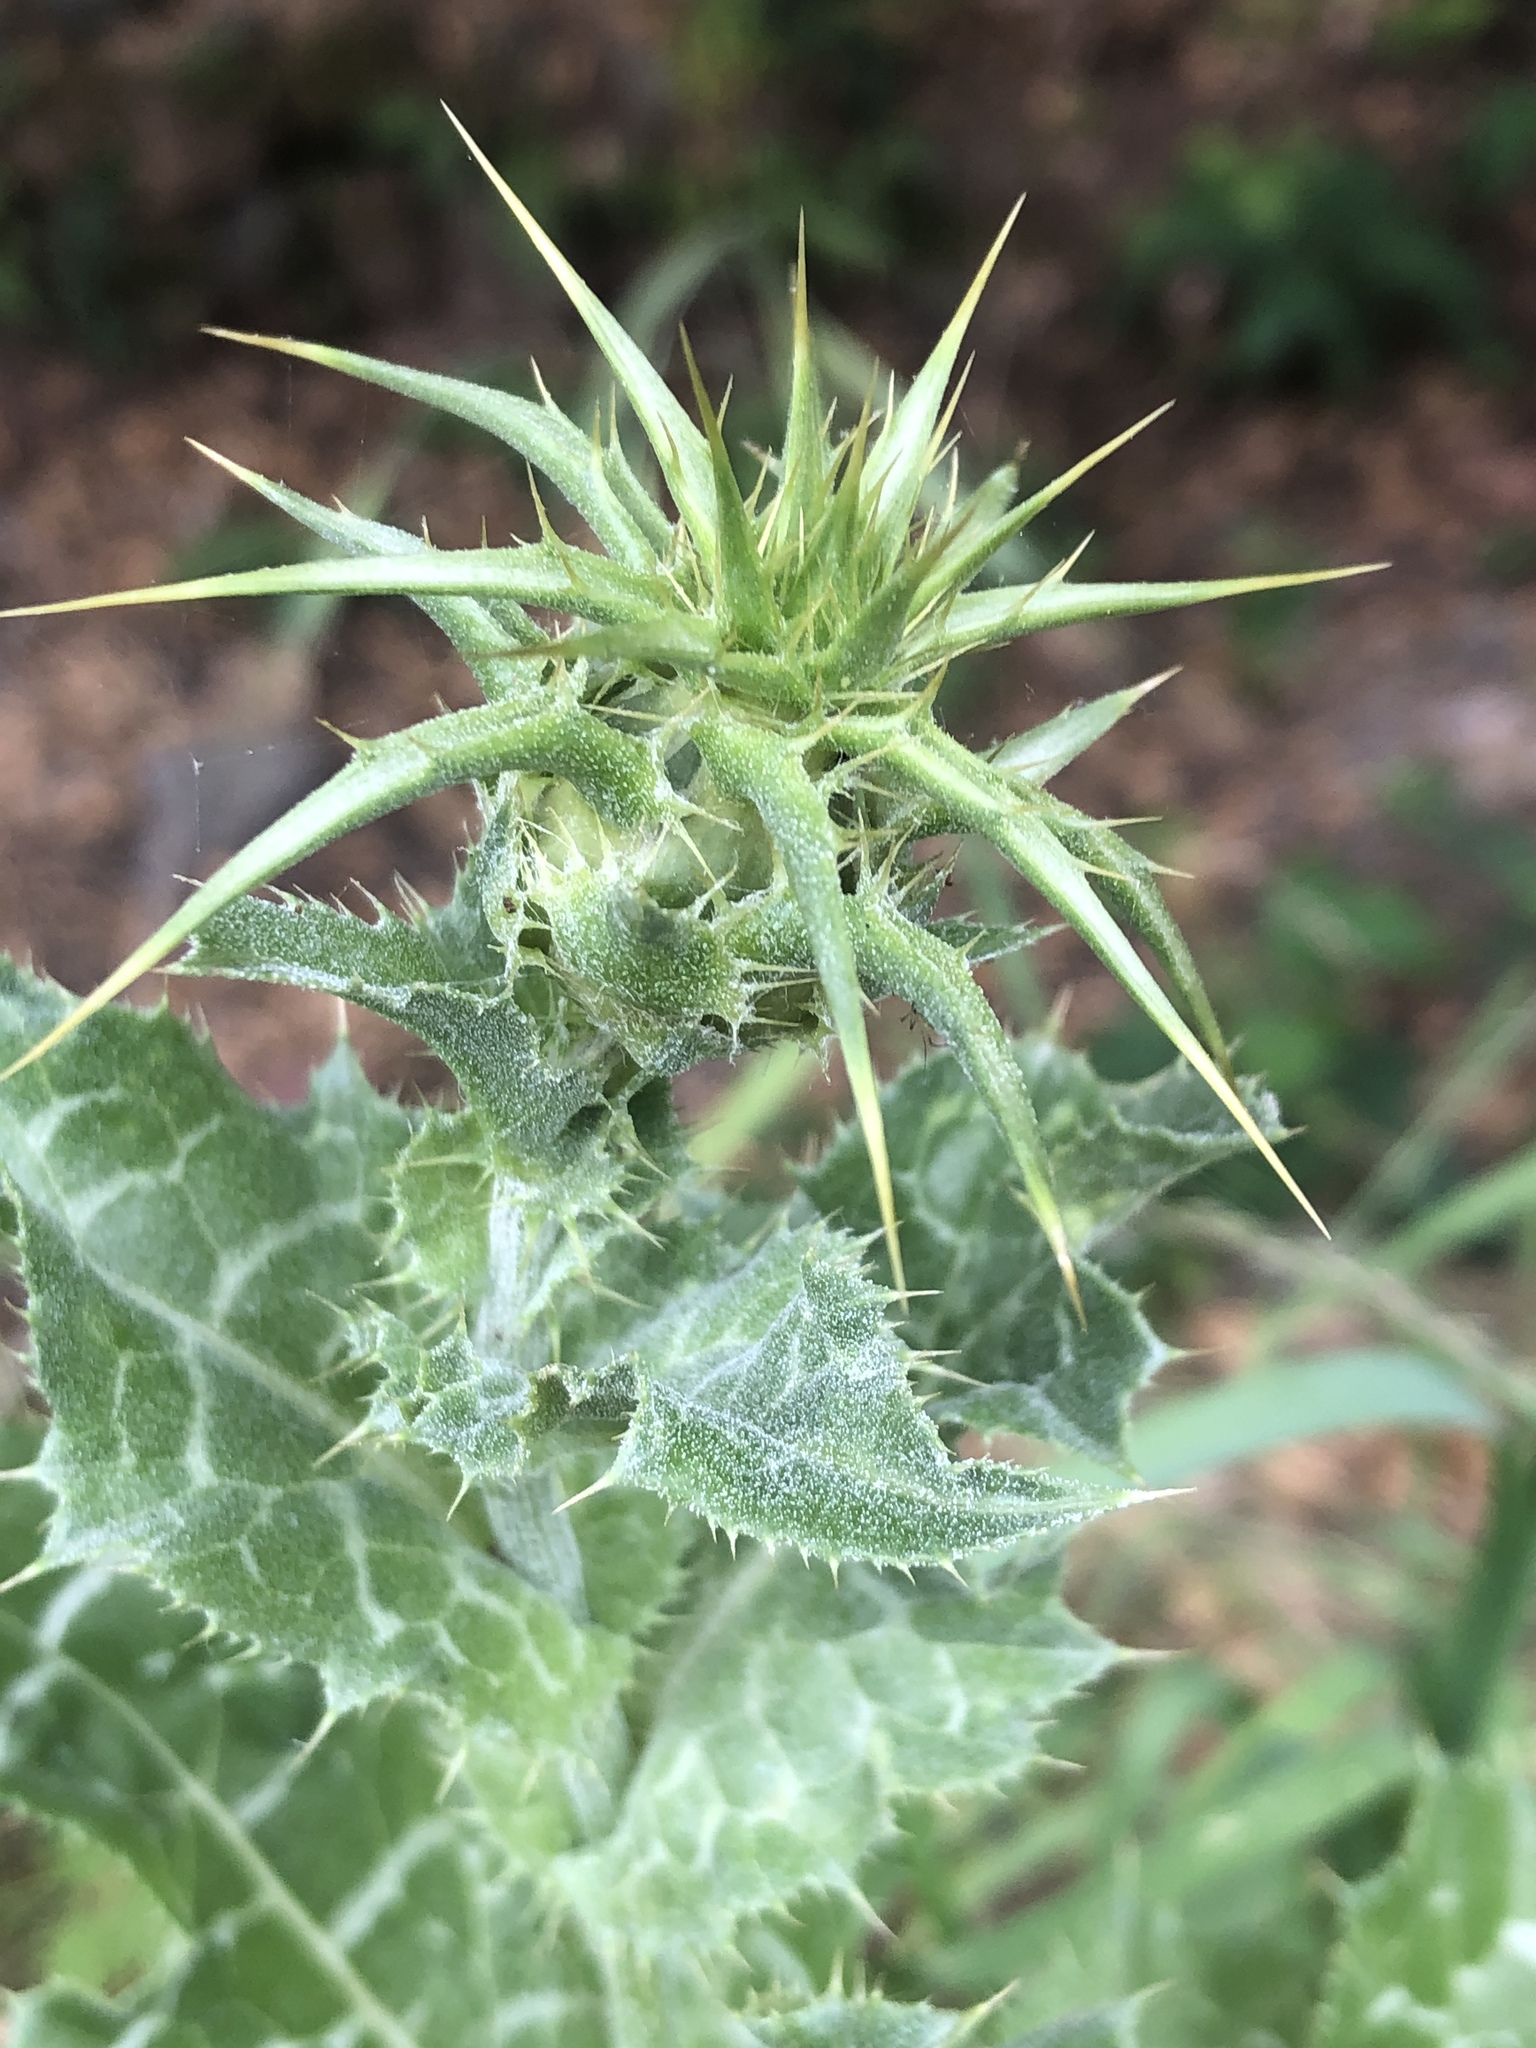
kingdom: Plantae
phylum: Tracheophyta
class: Magnoliopsida
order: Asterales
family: Asteraceae
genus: Silybum
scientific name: Silybum marianum
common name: Milk thistle
